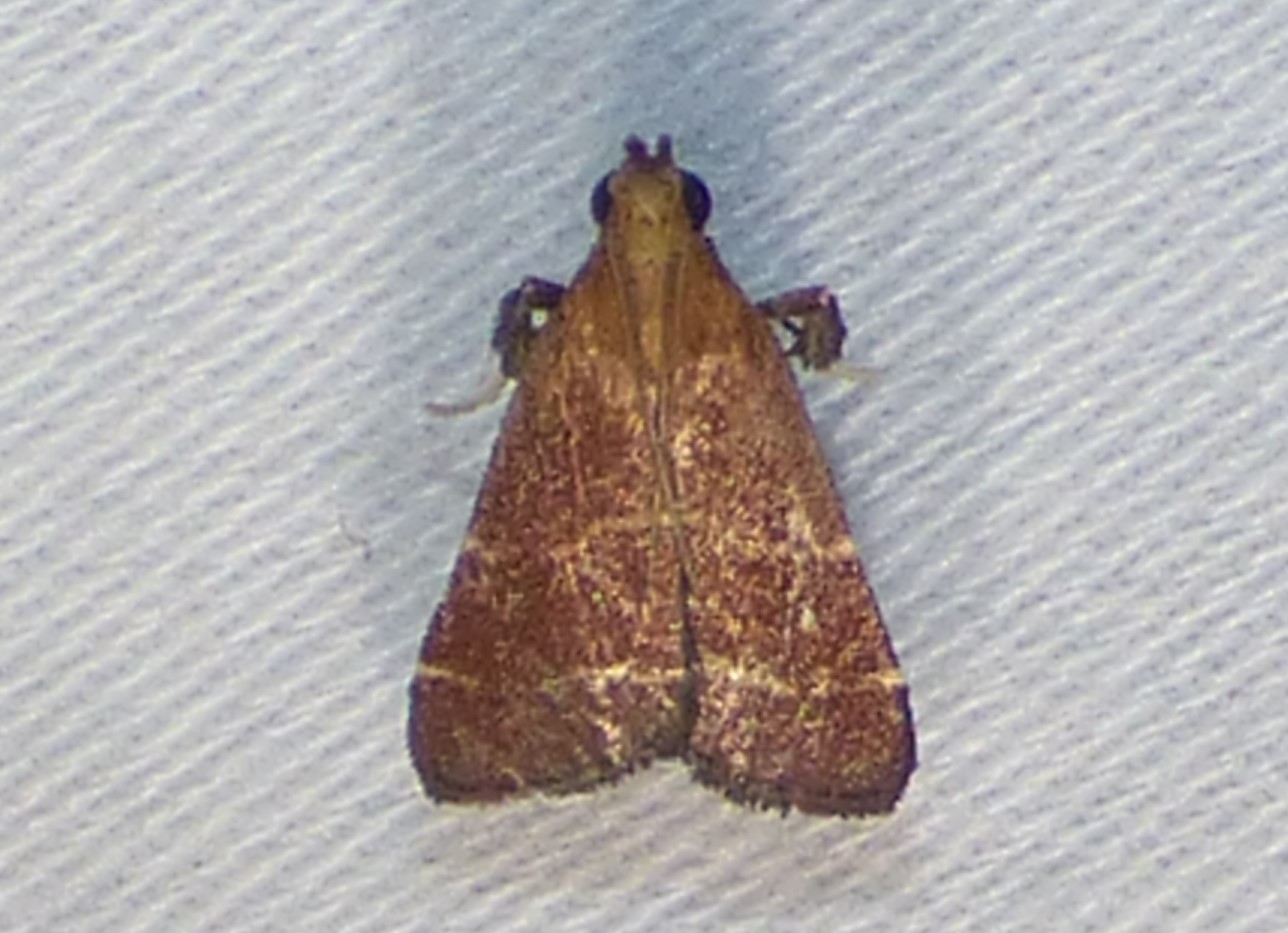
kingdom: Animalia
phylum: Arthropoda
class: Insecta
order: Lepidoptera
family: Pyralidae
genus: Arta
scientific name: Arta statalis
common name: Posturing arta moth
